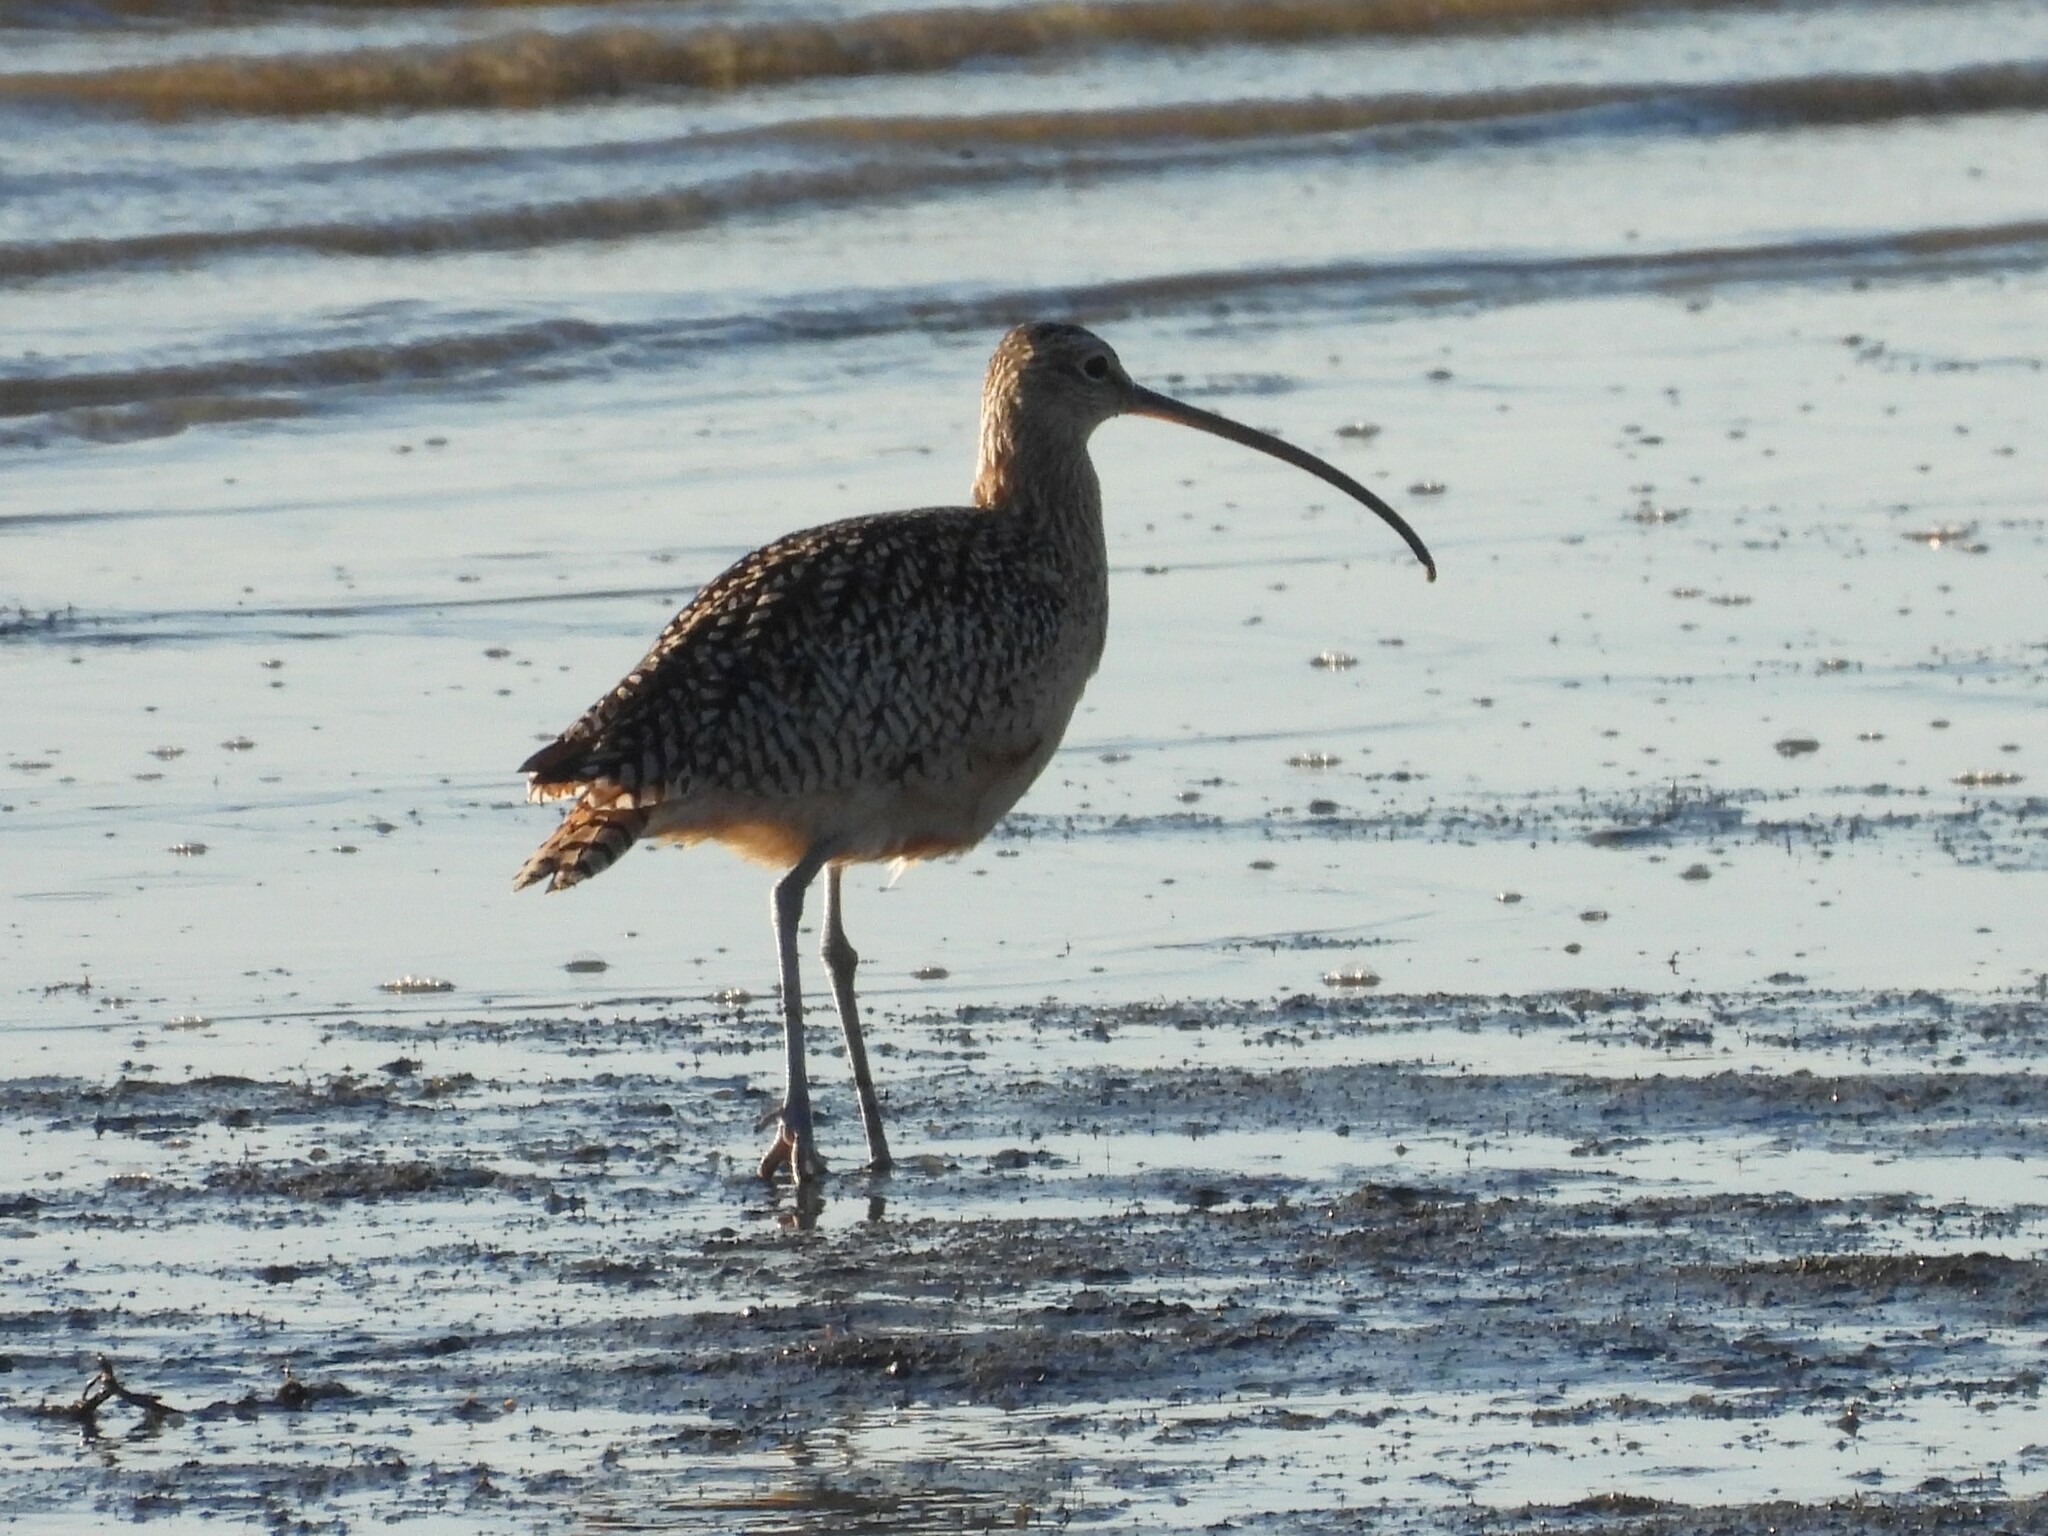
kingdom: Animalia
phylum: Chordata
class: Aves
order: Charadriiformes
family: Scolopacidae
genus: Numenius
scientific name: Numenius americanus
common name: Long-billed curlew
